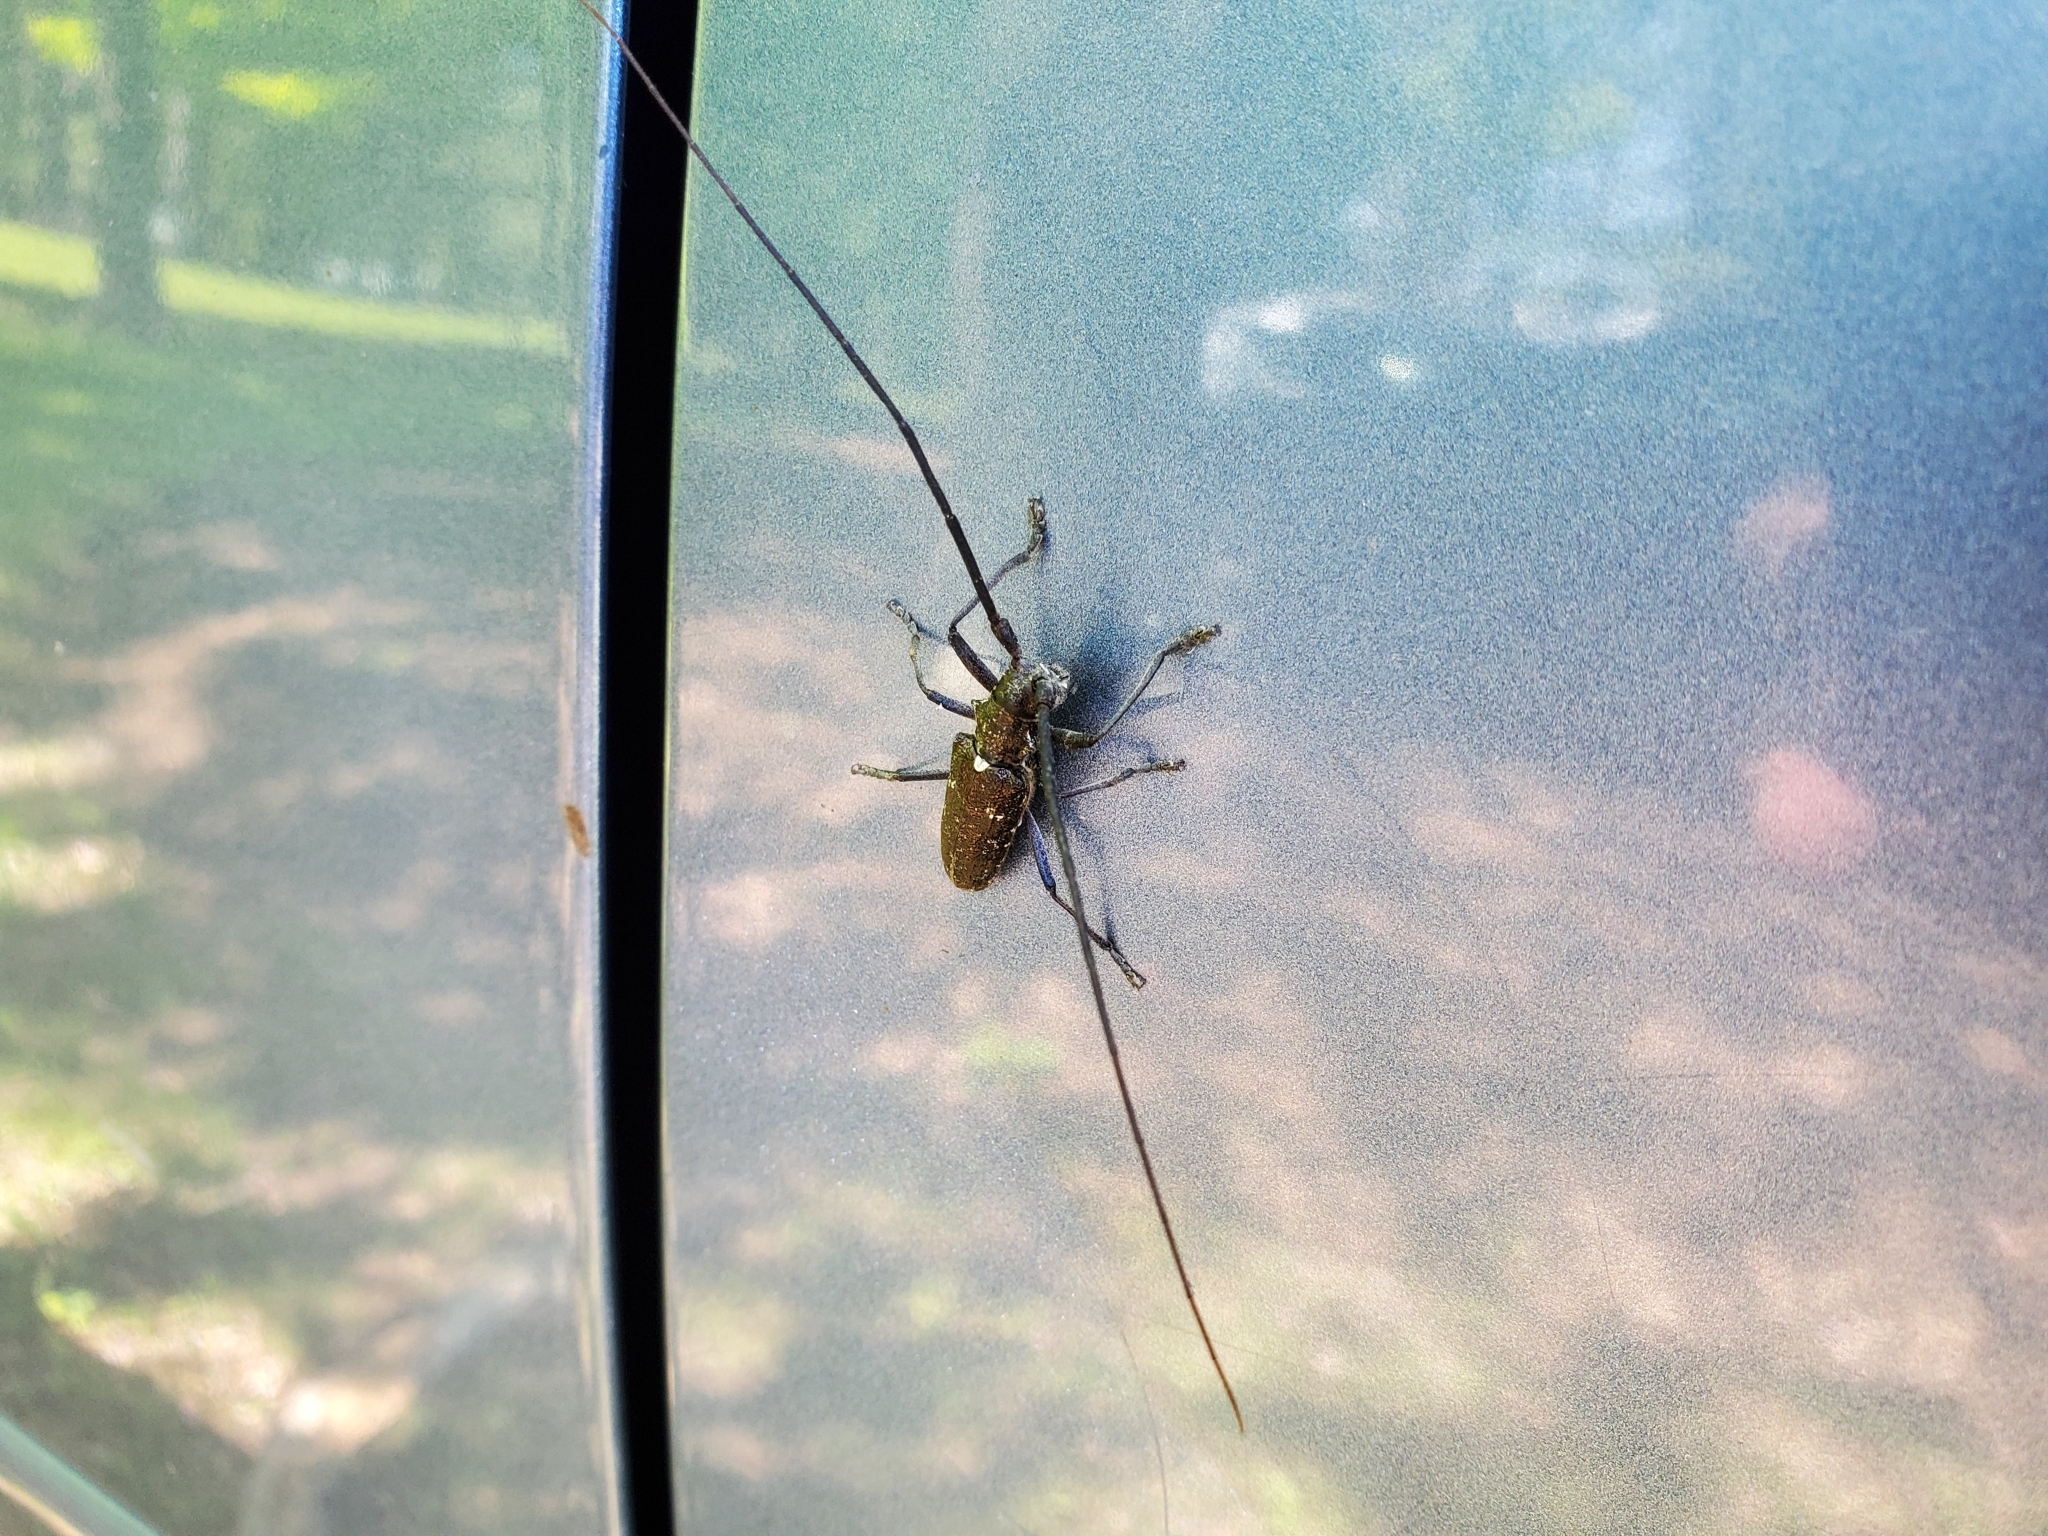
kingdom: Animalia
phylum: Arthropoda
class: Insecta
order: Coleoptera
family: Cerambycidae
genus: Monochamus
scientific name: Monochamus scutellatus
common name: White-spotted sawyer beetle
